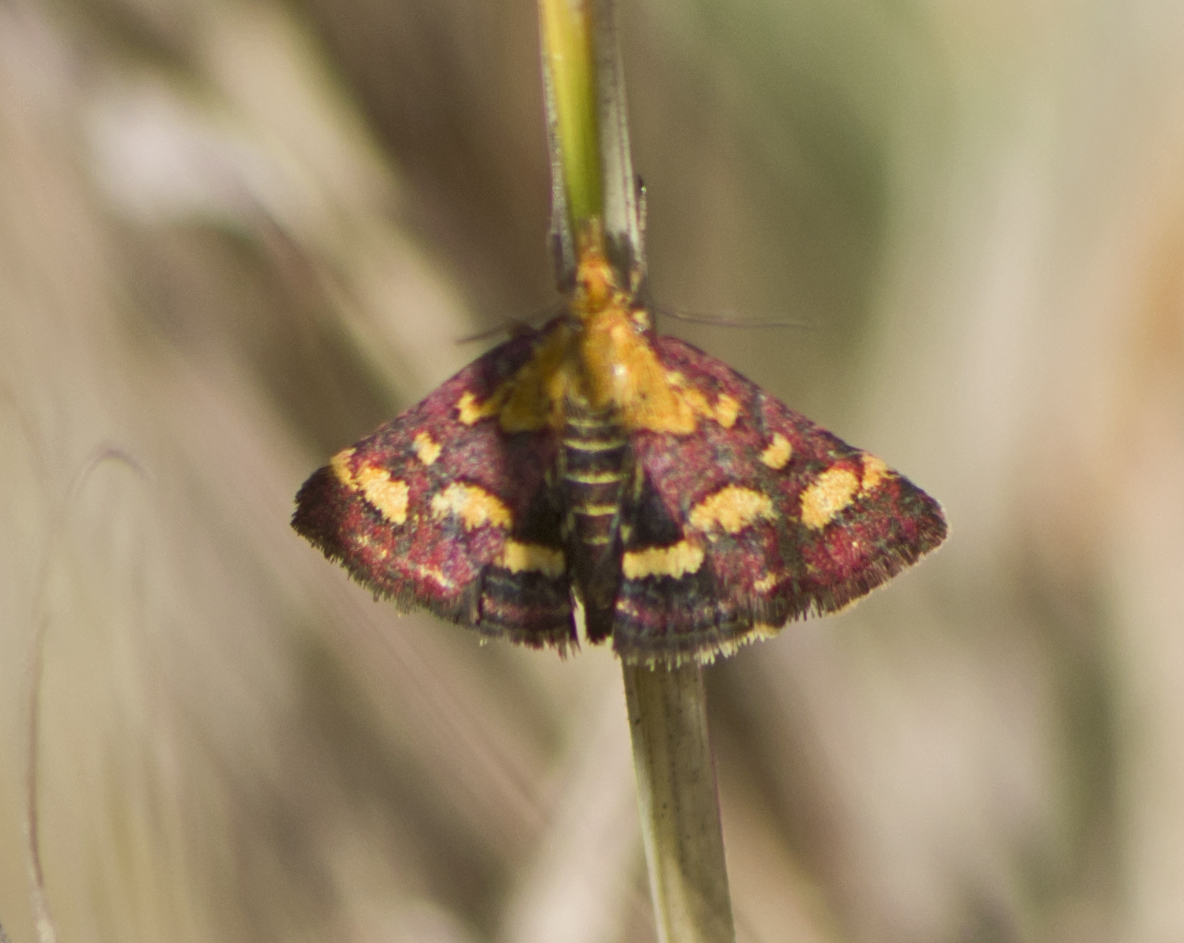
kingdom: Animalia
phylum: Arthropoda
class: Insecta
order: Lepidoptera
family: Crambidae
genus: Pyrausta
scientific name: Pyrausta purpuralis
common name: Common purple & gold
